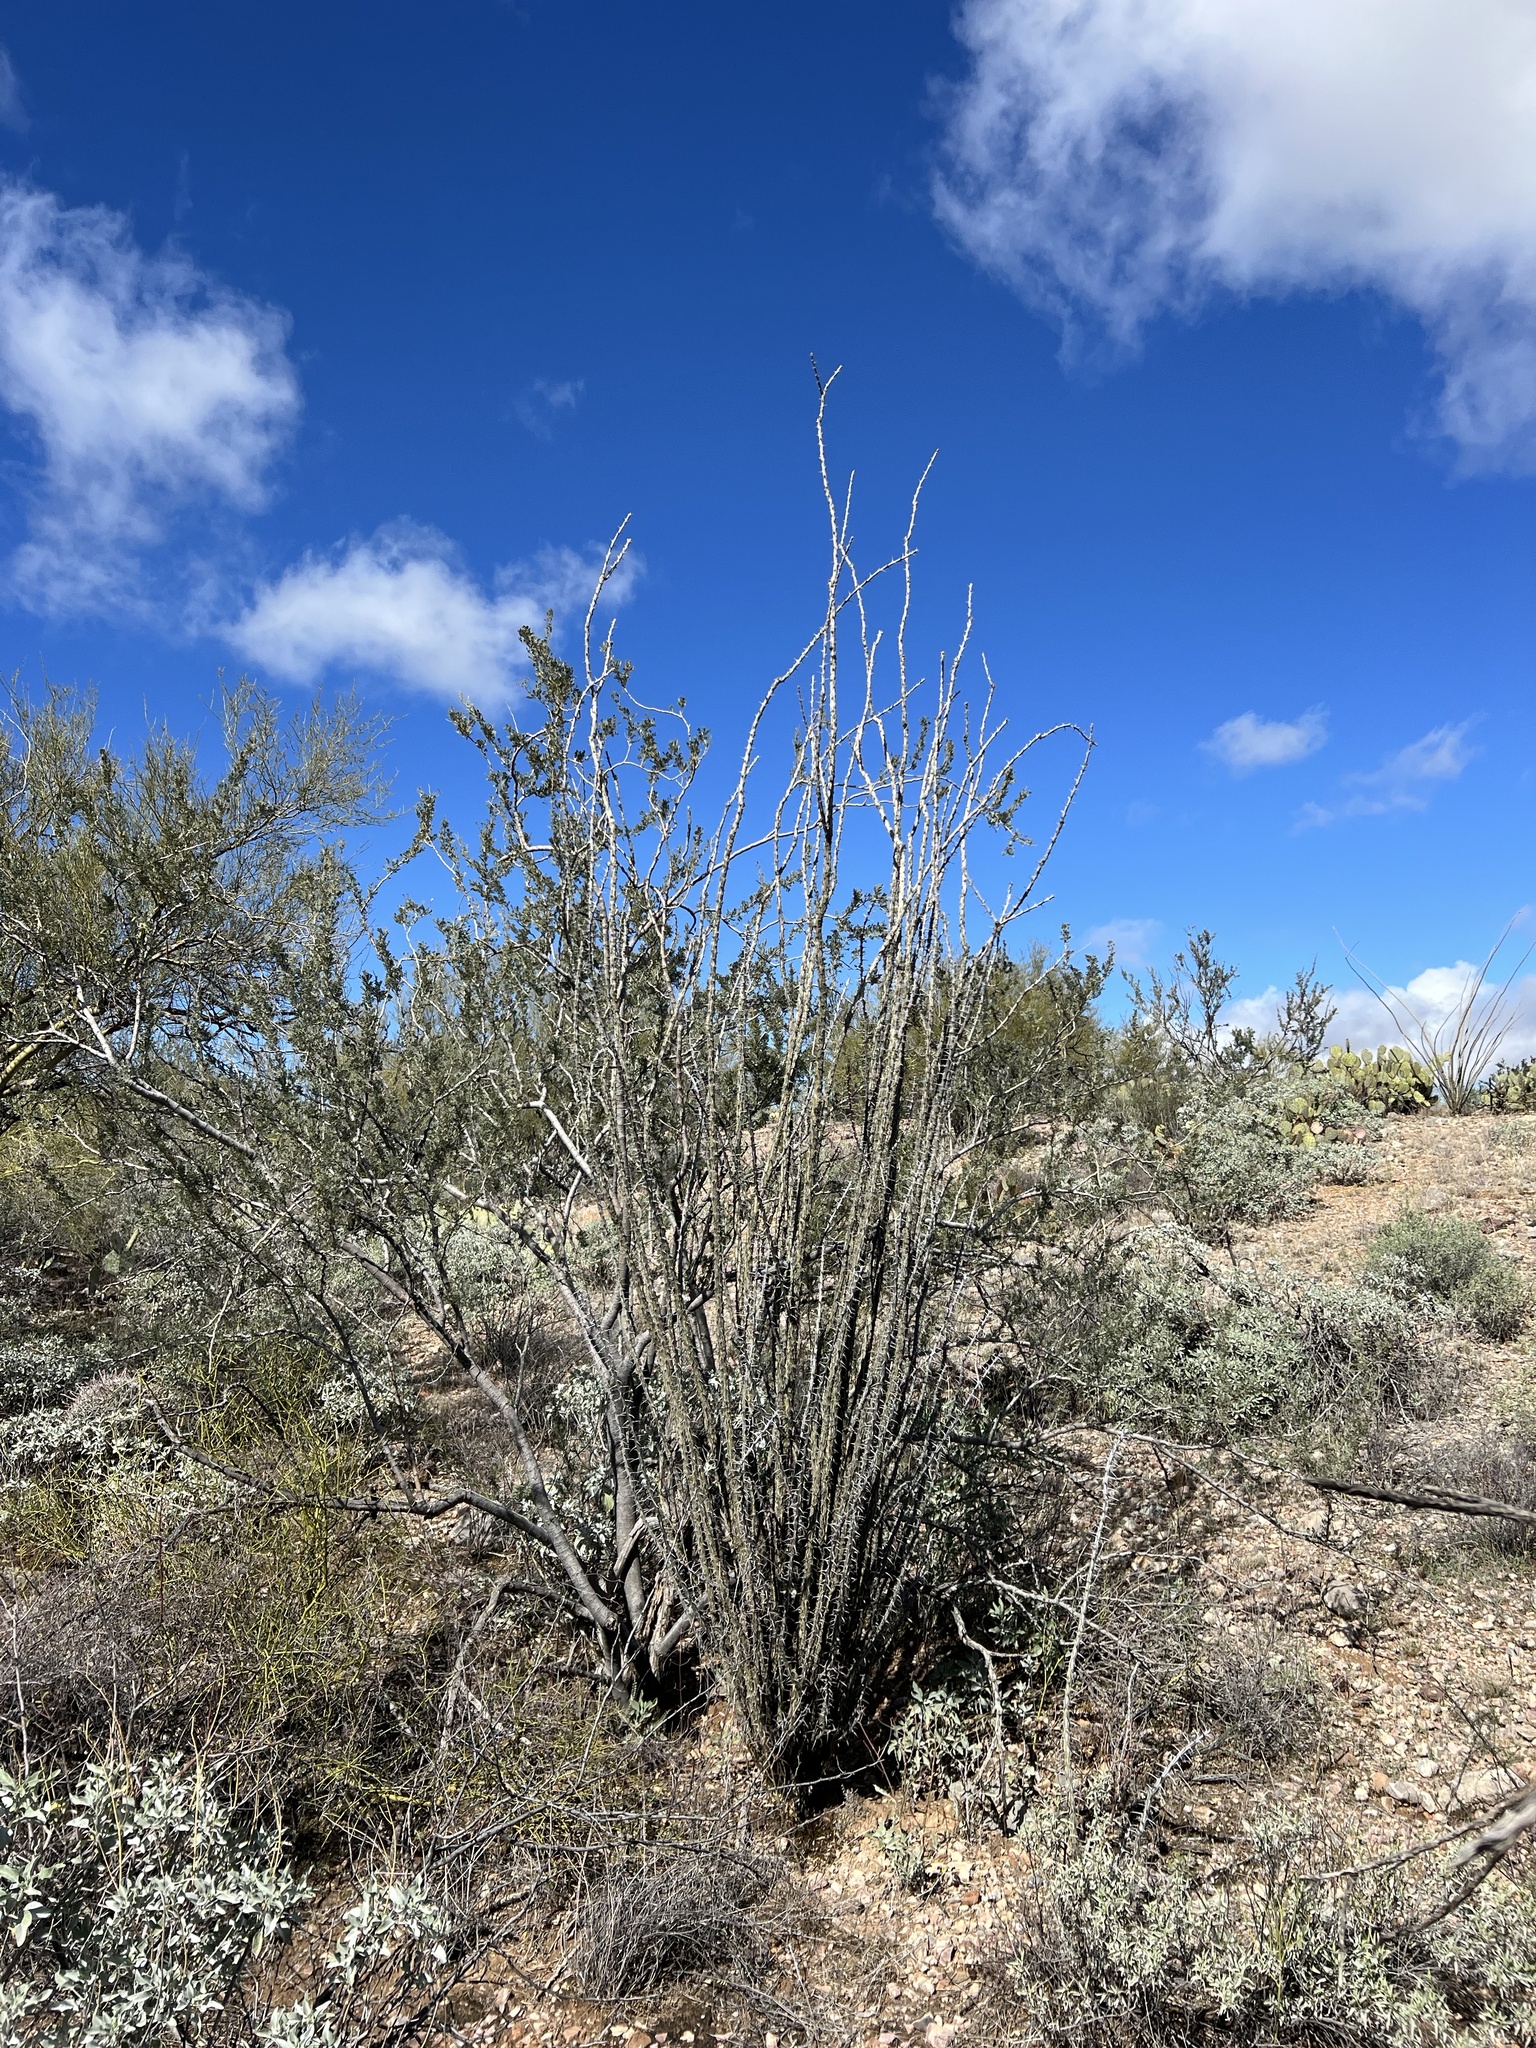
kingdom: Plantae
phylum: Tracheophyta
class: Magnoliopsida
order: Ericales
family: Fouquieriaceae
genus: Fouquieria
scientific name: Fouquieria splendens
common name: Vine-cactus
